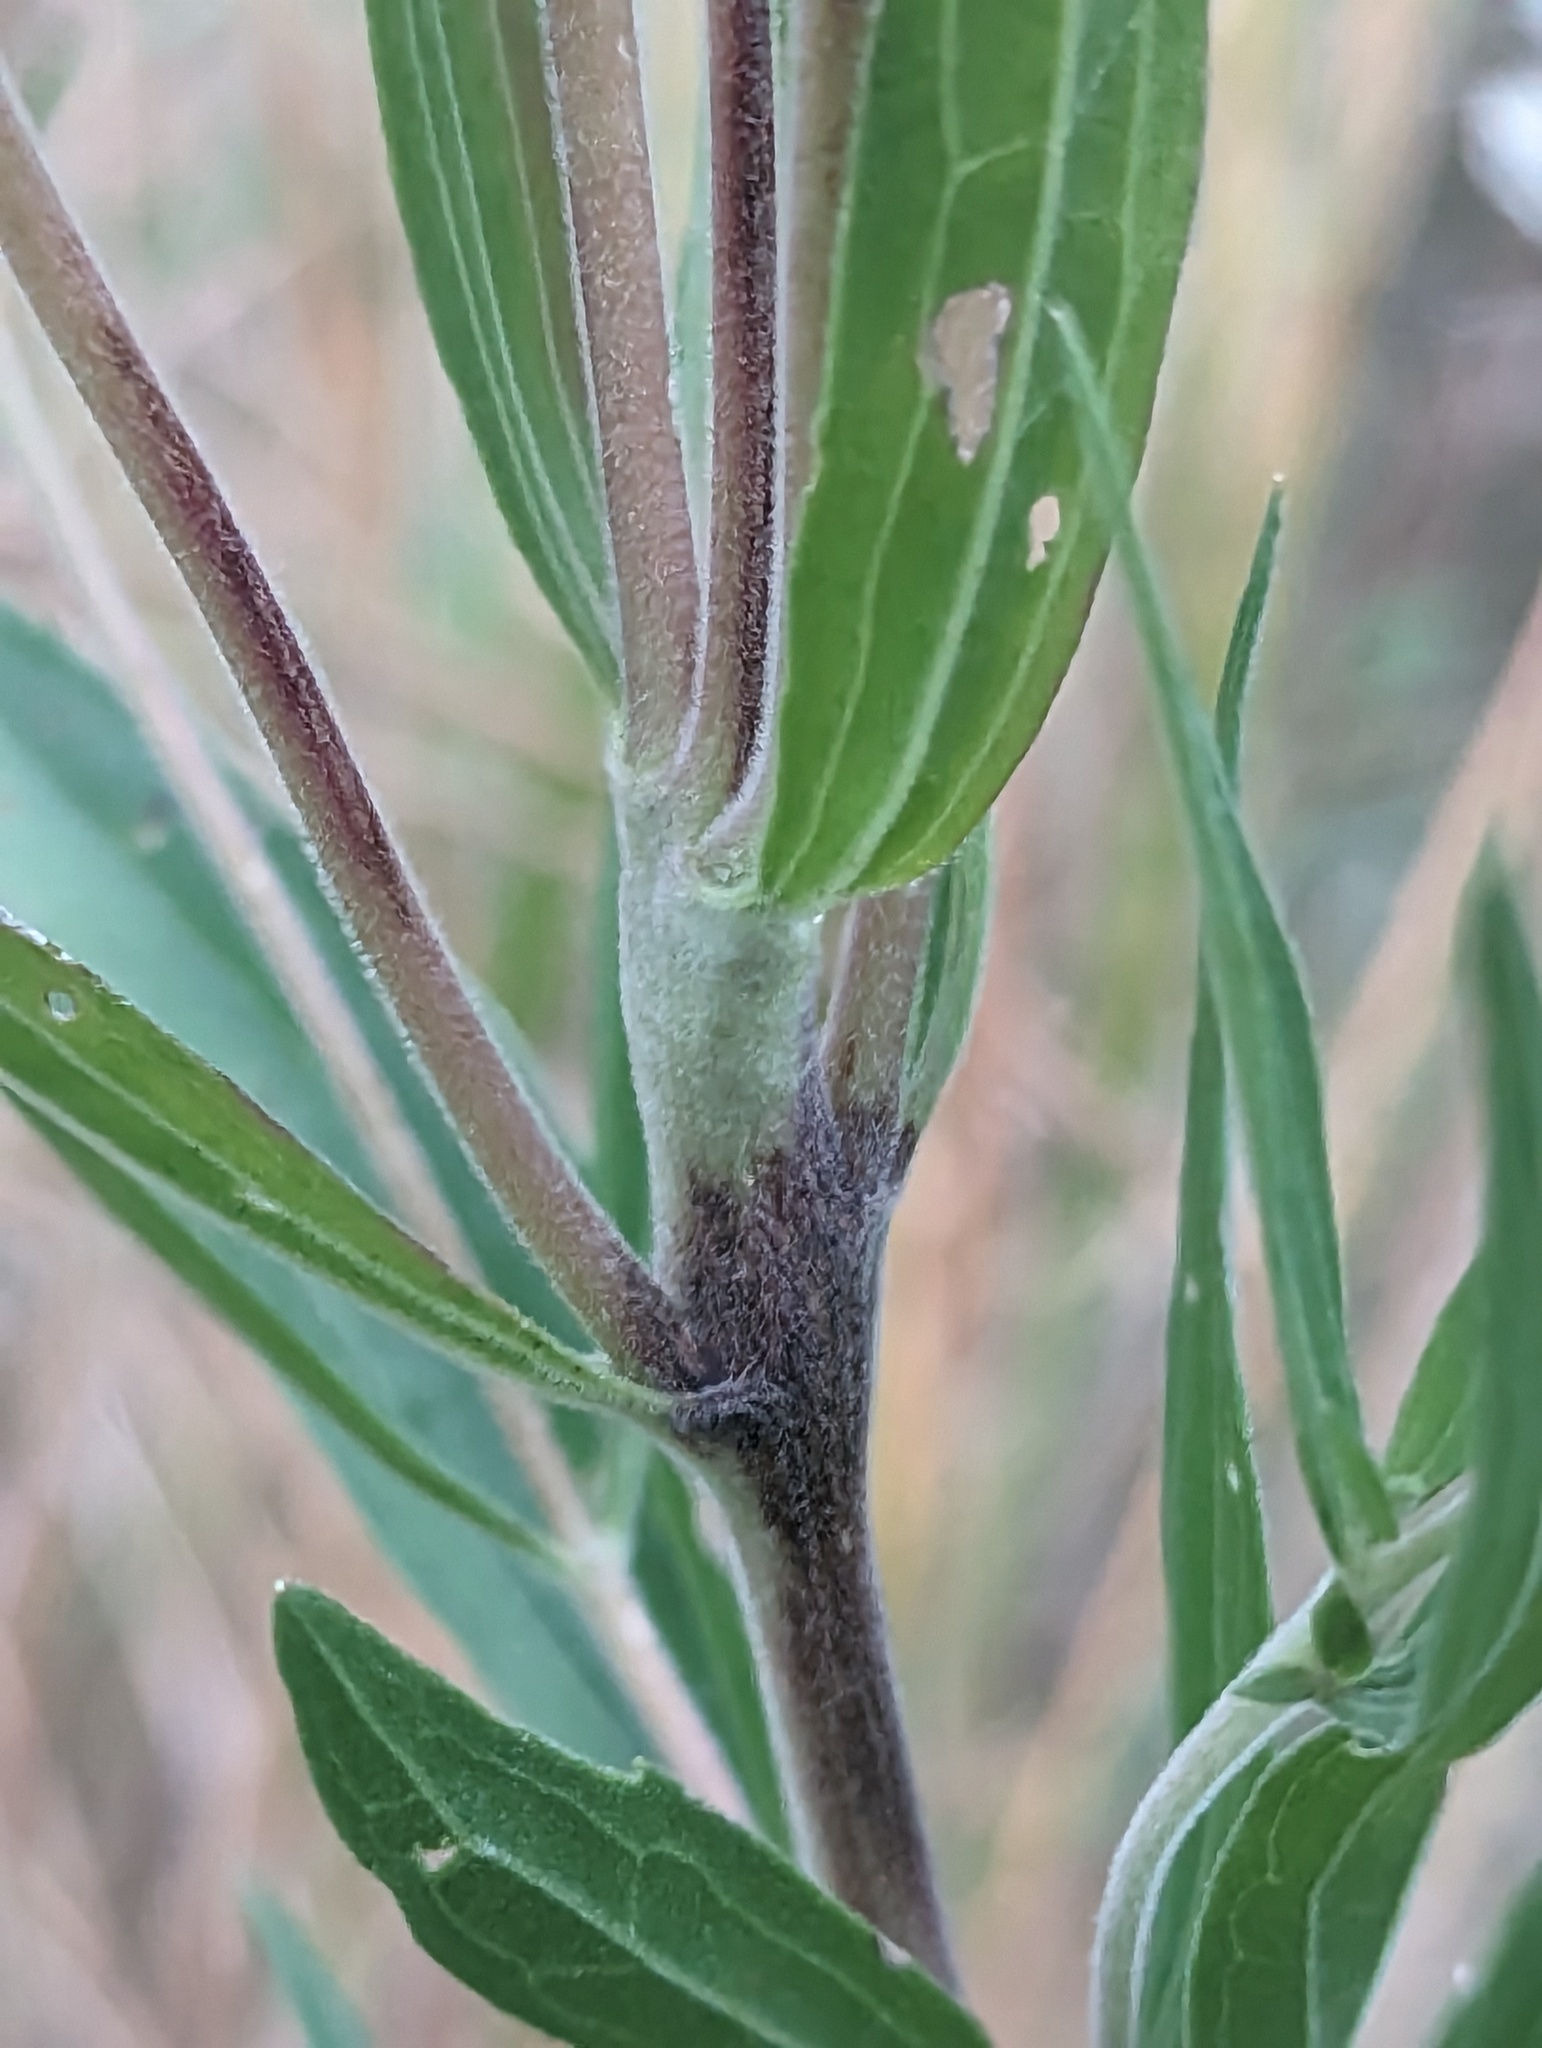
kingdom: Plantae
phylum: Tracheophyta
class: Magnoliopsida
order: Asterales
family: Asteraceae
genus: Eupatorium
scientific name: Eupatorium altissimum
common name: Tall thoroughwort
